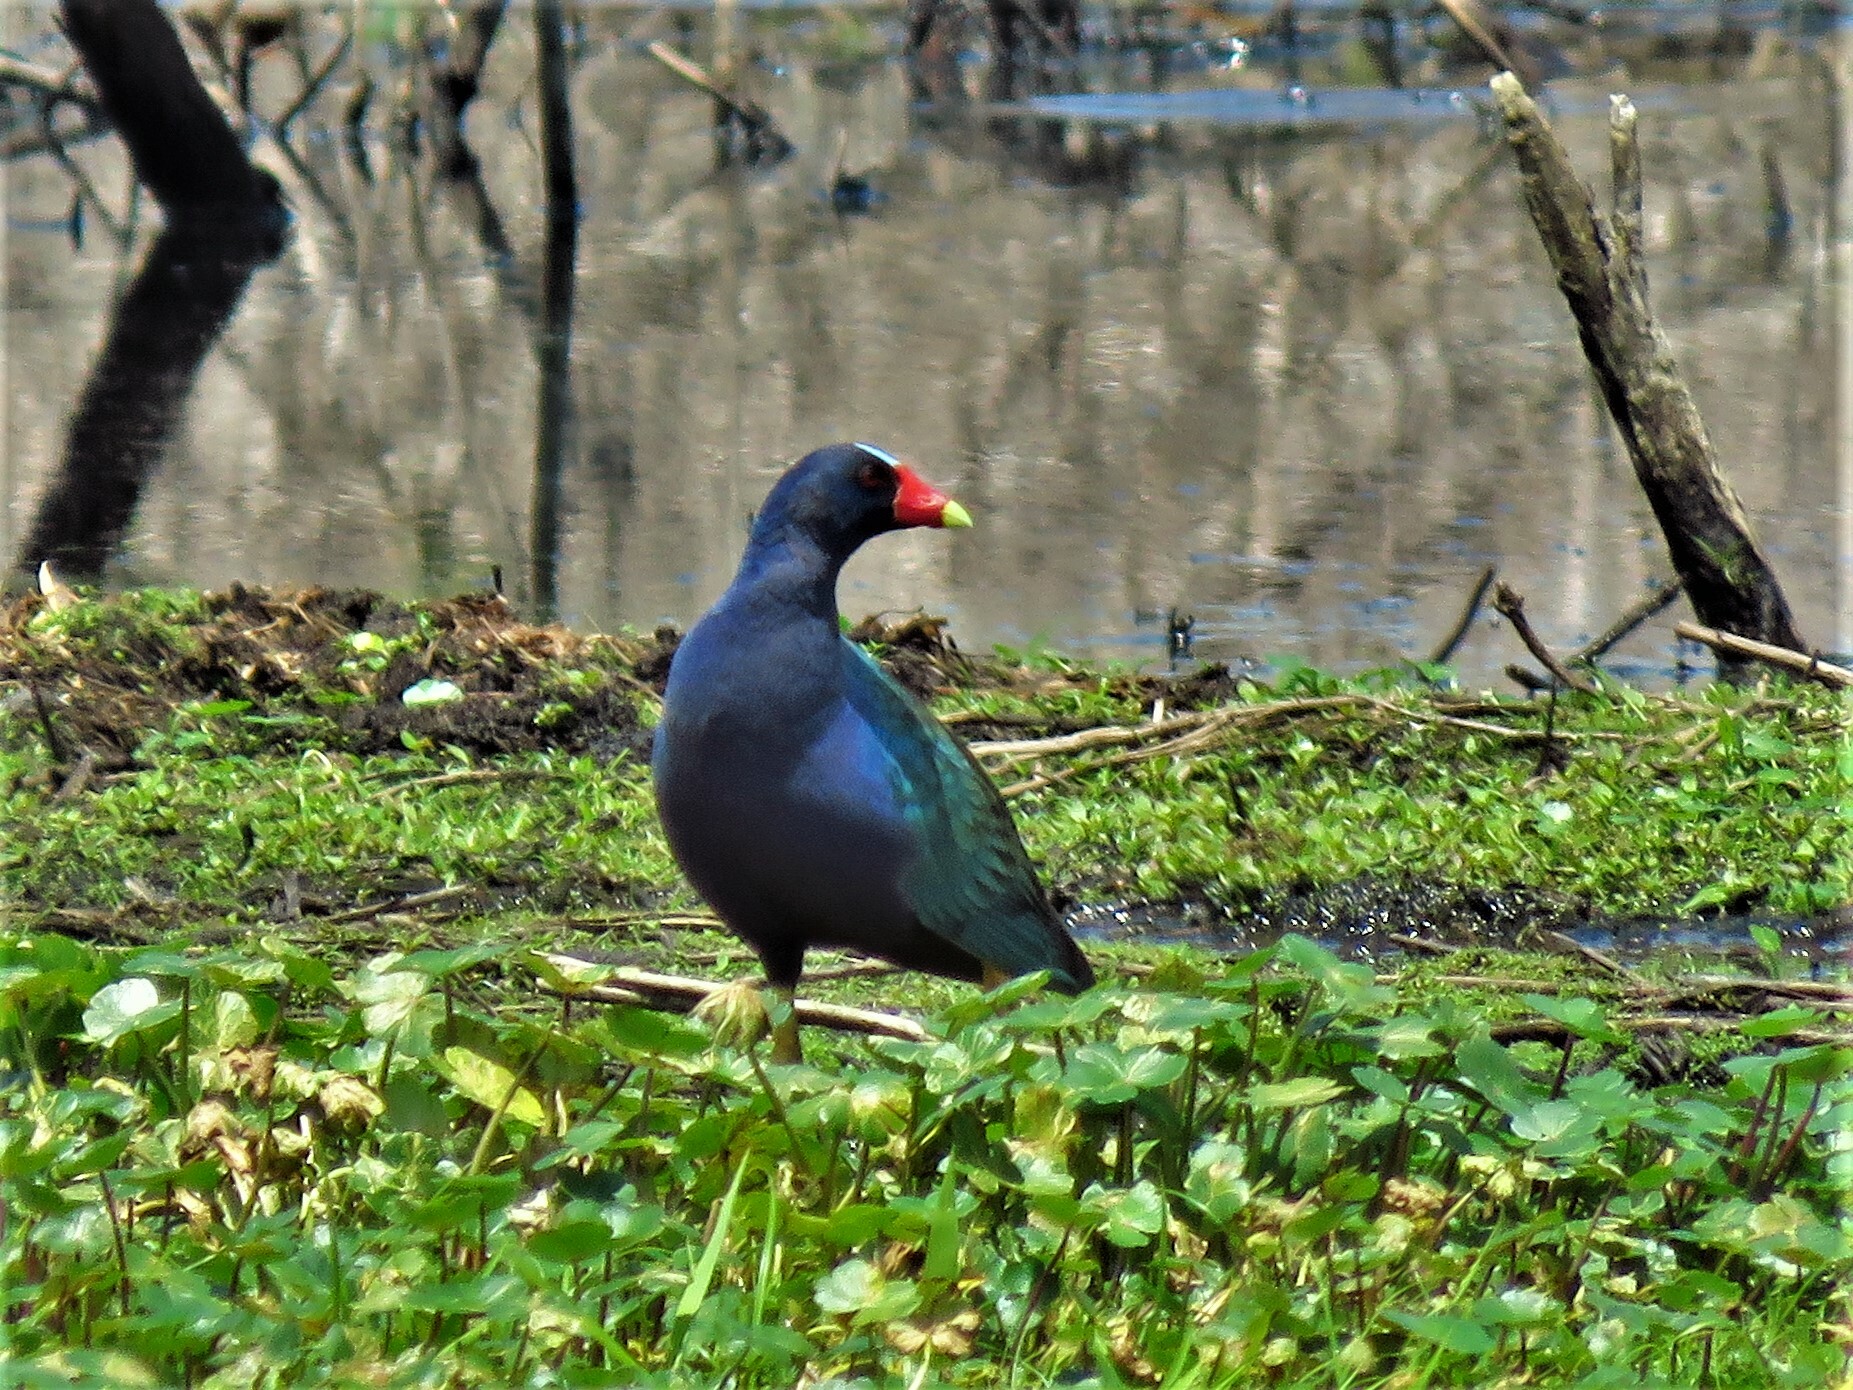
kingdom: Animalia
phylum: Chordata
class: Aves
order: Gruiformes
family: Rallidae
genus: Porphyrio
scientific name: Porphyrio martinica
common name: Purple gallinule
